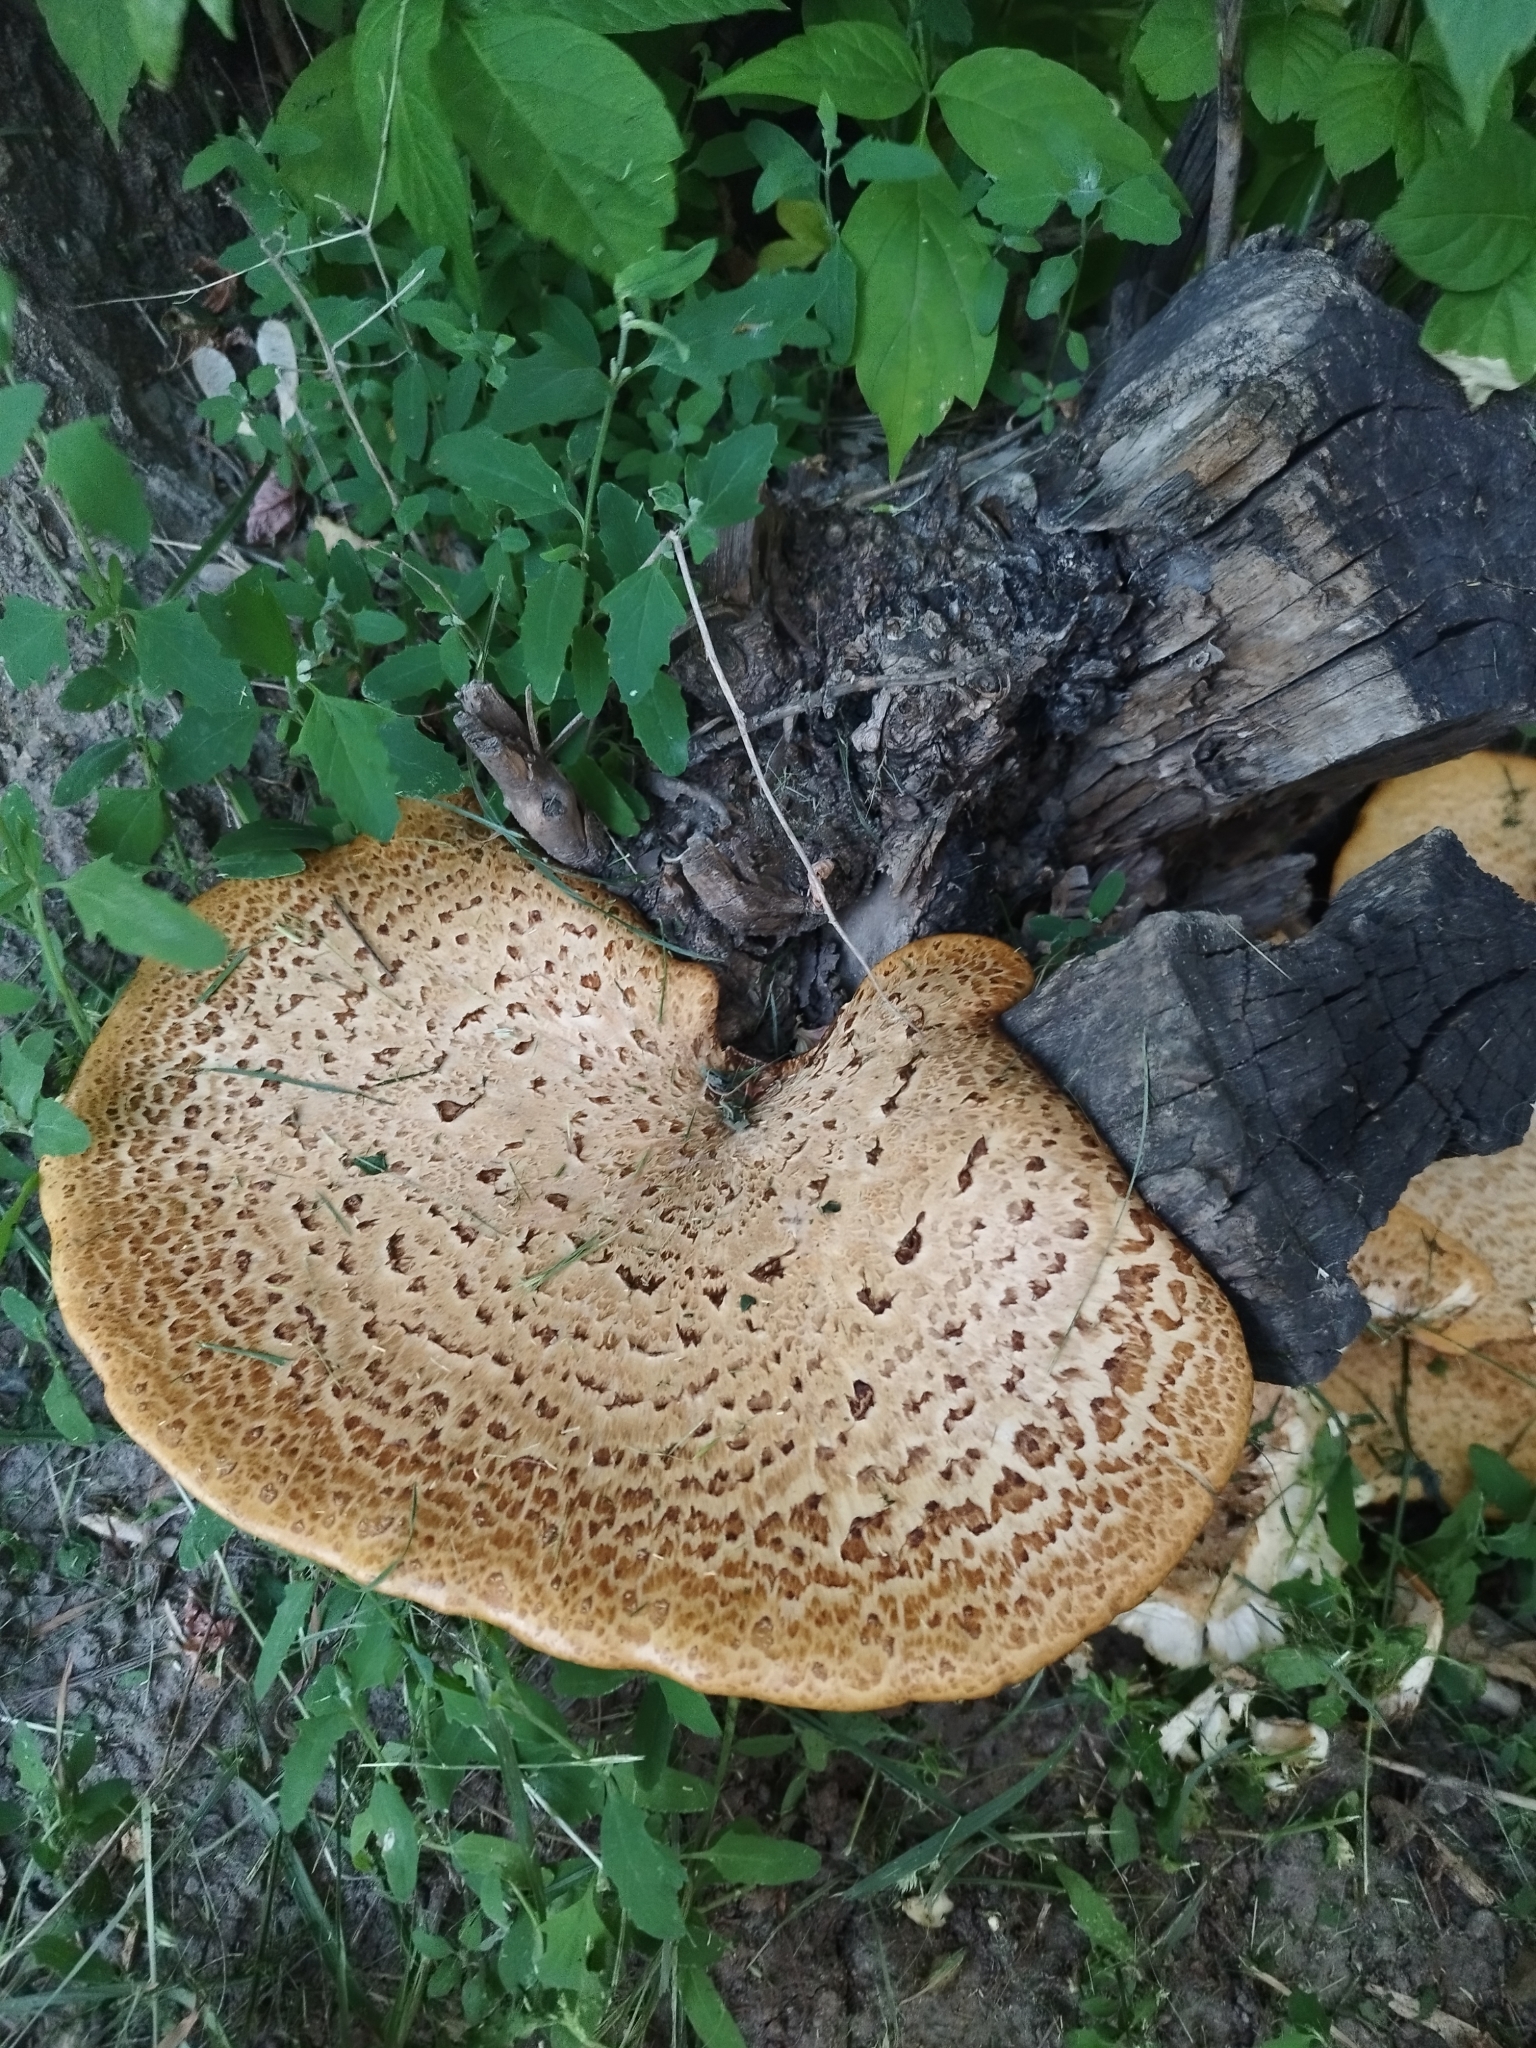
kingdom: Fungi
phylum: Basidiomycota
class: Agaricomycetes
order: Polyporales
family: Polyporaceae
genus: Cerioporus
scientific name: Cerioporus squamosus
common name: Dryad's saddle
